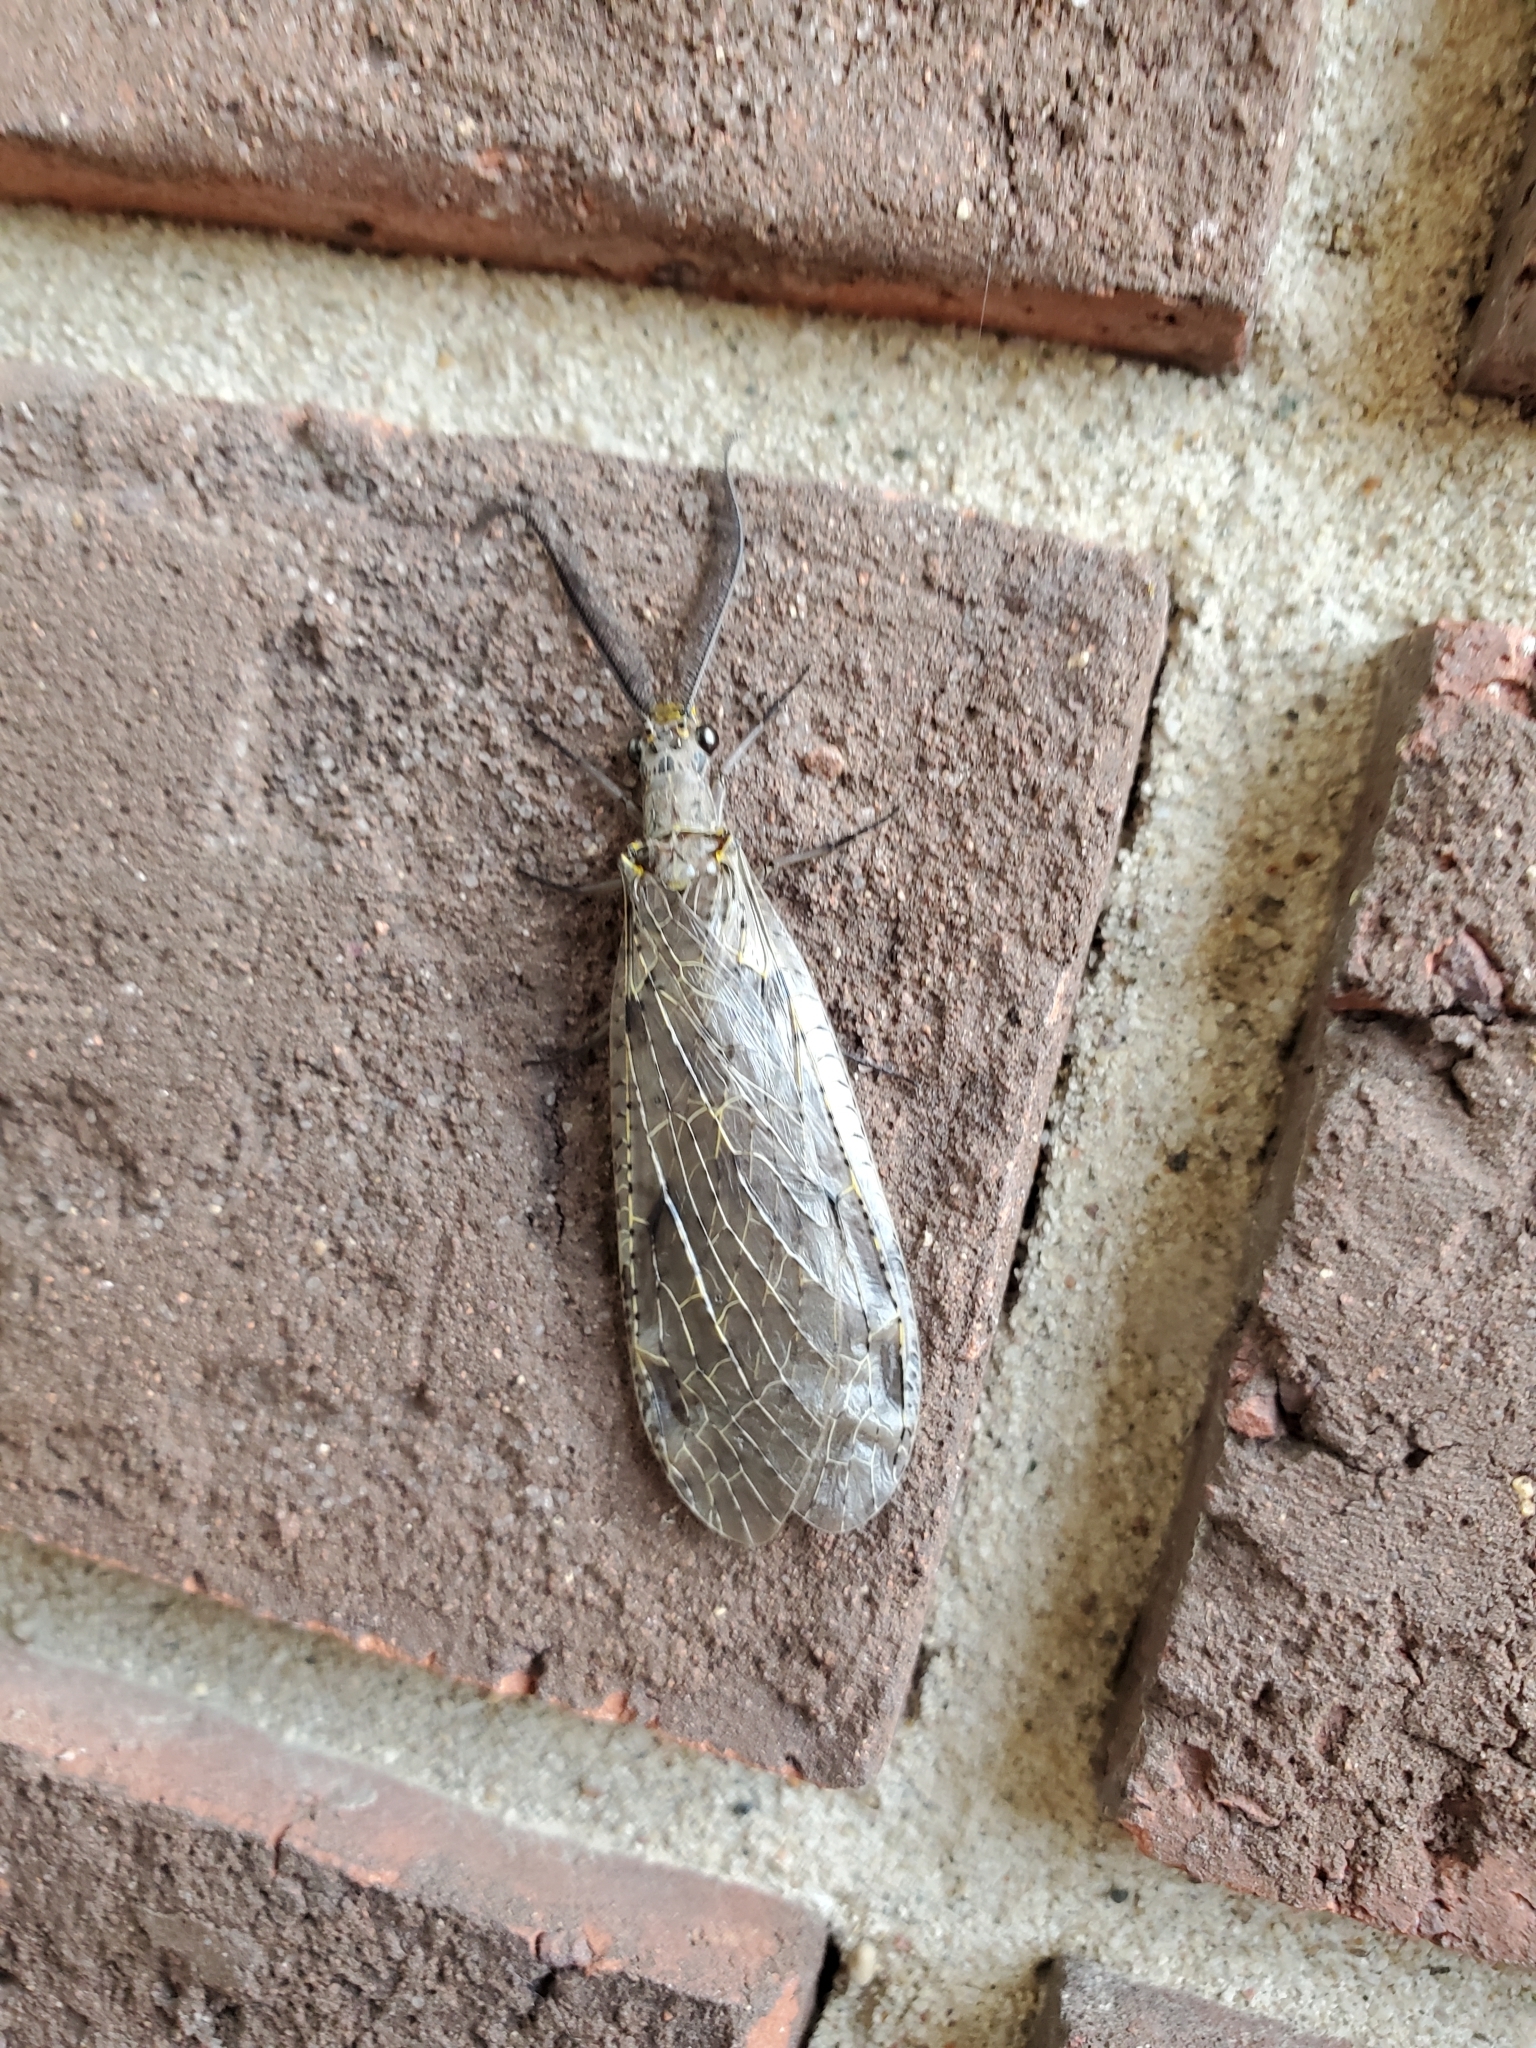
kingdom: Animalia
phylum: Arthropoda
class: Insecta
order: Megaloptera
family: Corydalidae
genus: Chauliodes
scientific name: Chauliodes rastricornis
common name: Spring fishfly
